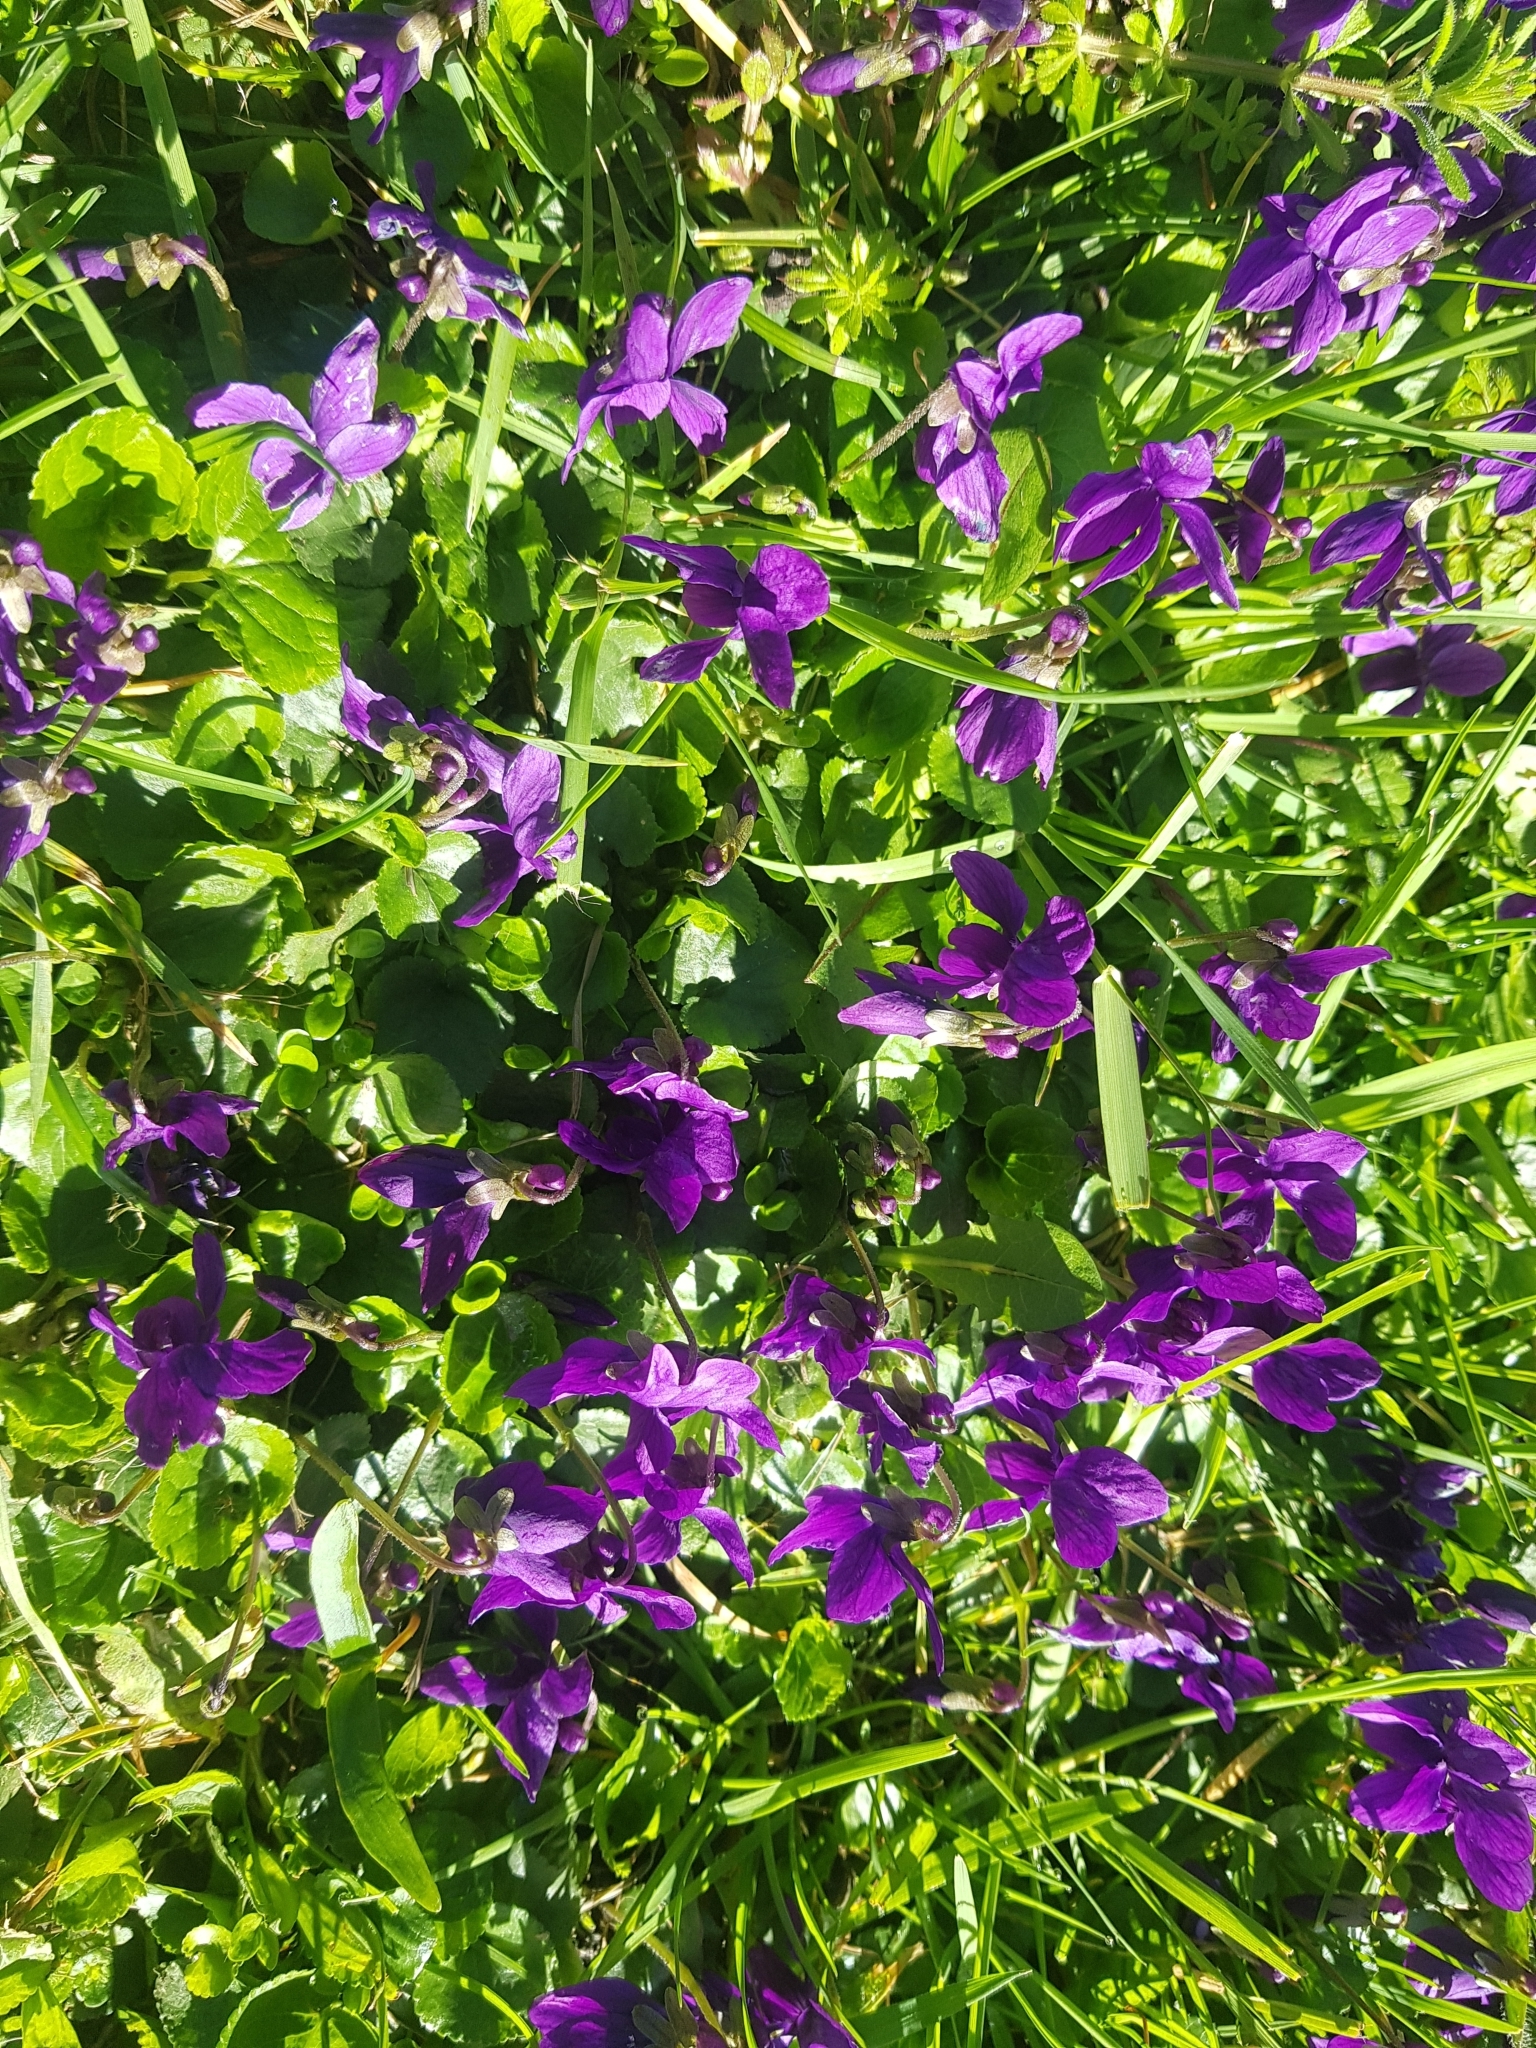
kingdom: Plantae
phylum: Tracheophyta
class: Magnoliopsida
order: Malpighiales
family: Violaceae
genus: Viola
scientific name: Viola odorata
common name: Sweet violet
